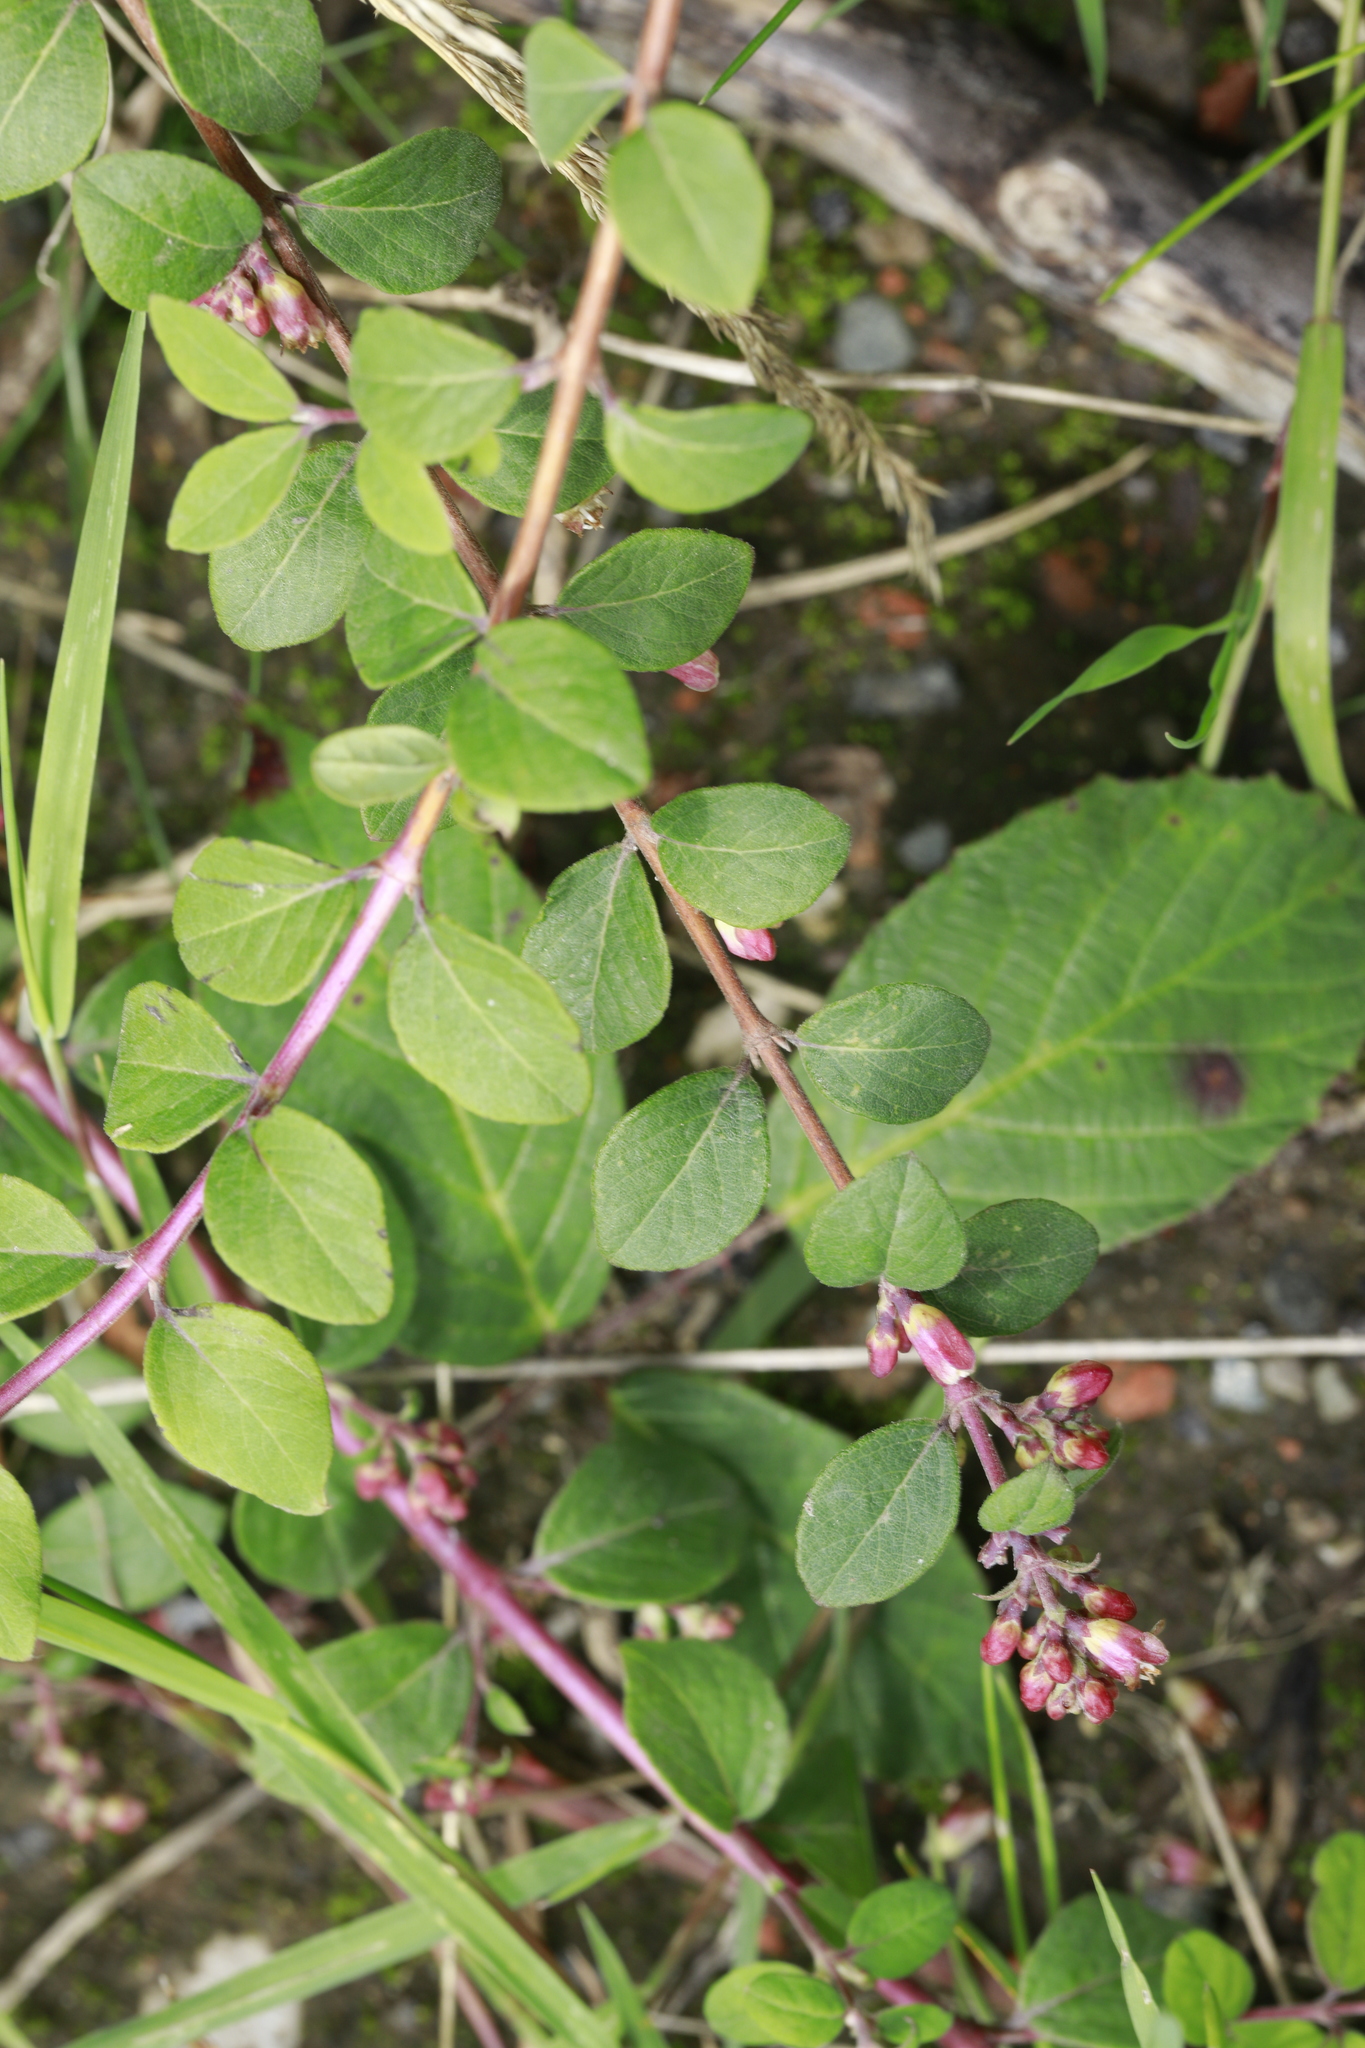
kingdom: Plantae
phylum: Tracheophyta
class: Magnoliopsida
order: Dipsacales
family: Caprifoliaceae
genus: Symphoricarpos
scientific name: Symphoricarpos chenaultii
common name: Hybrid coralberry
